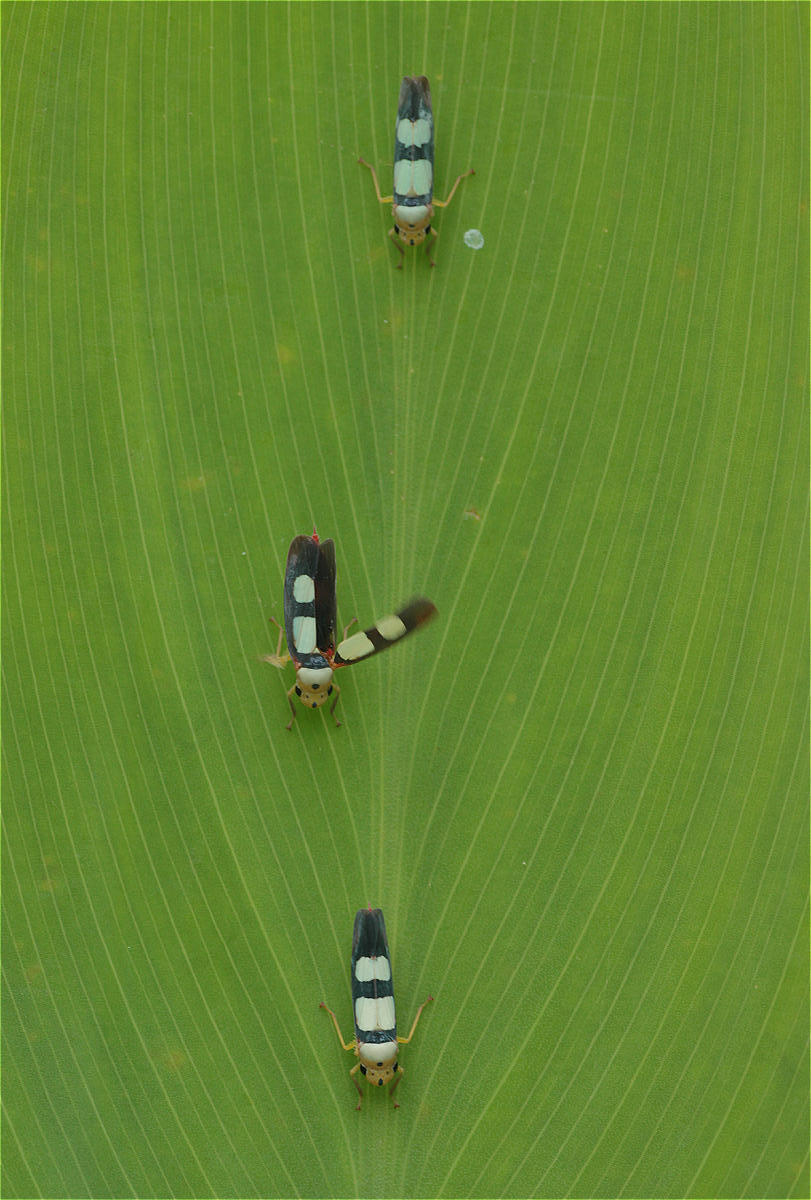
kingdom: Animalia
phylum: Arthropoda
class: Insecta
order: Hemiptera
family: Cicadellidae
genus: Tettisama
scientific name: Tettisama bisellata
